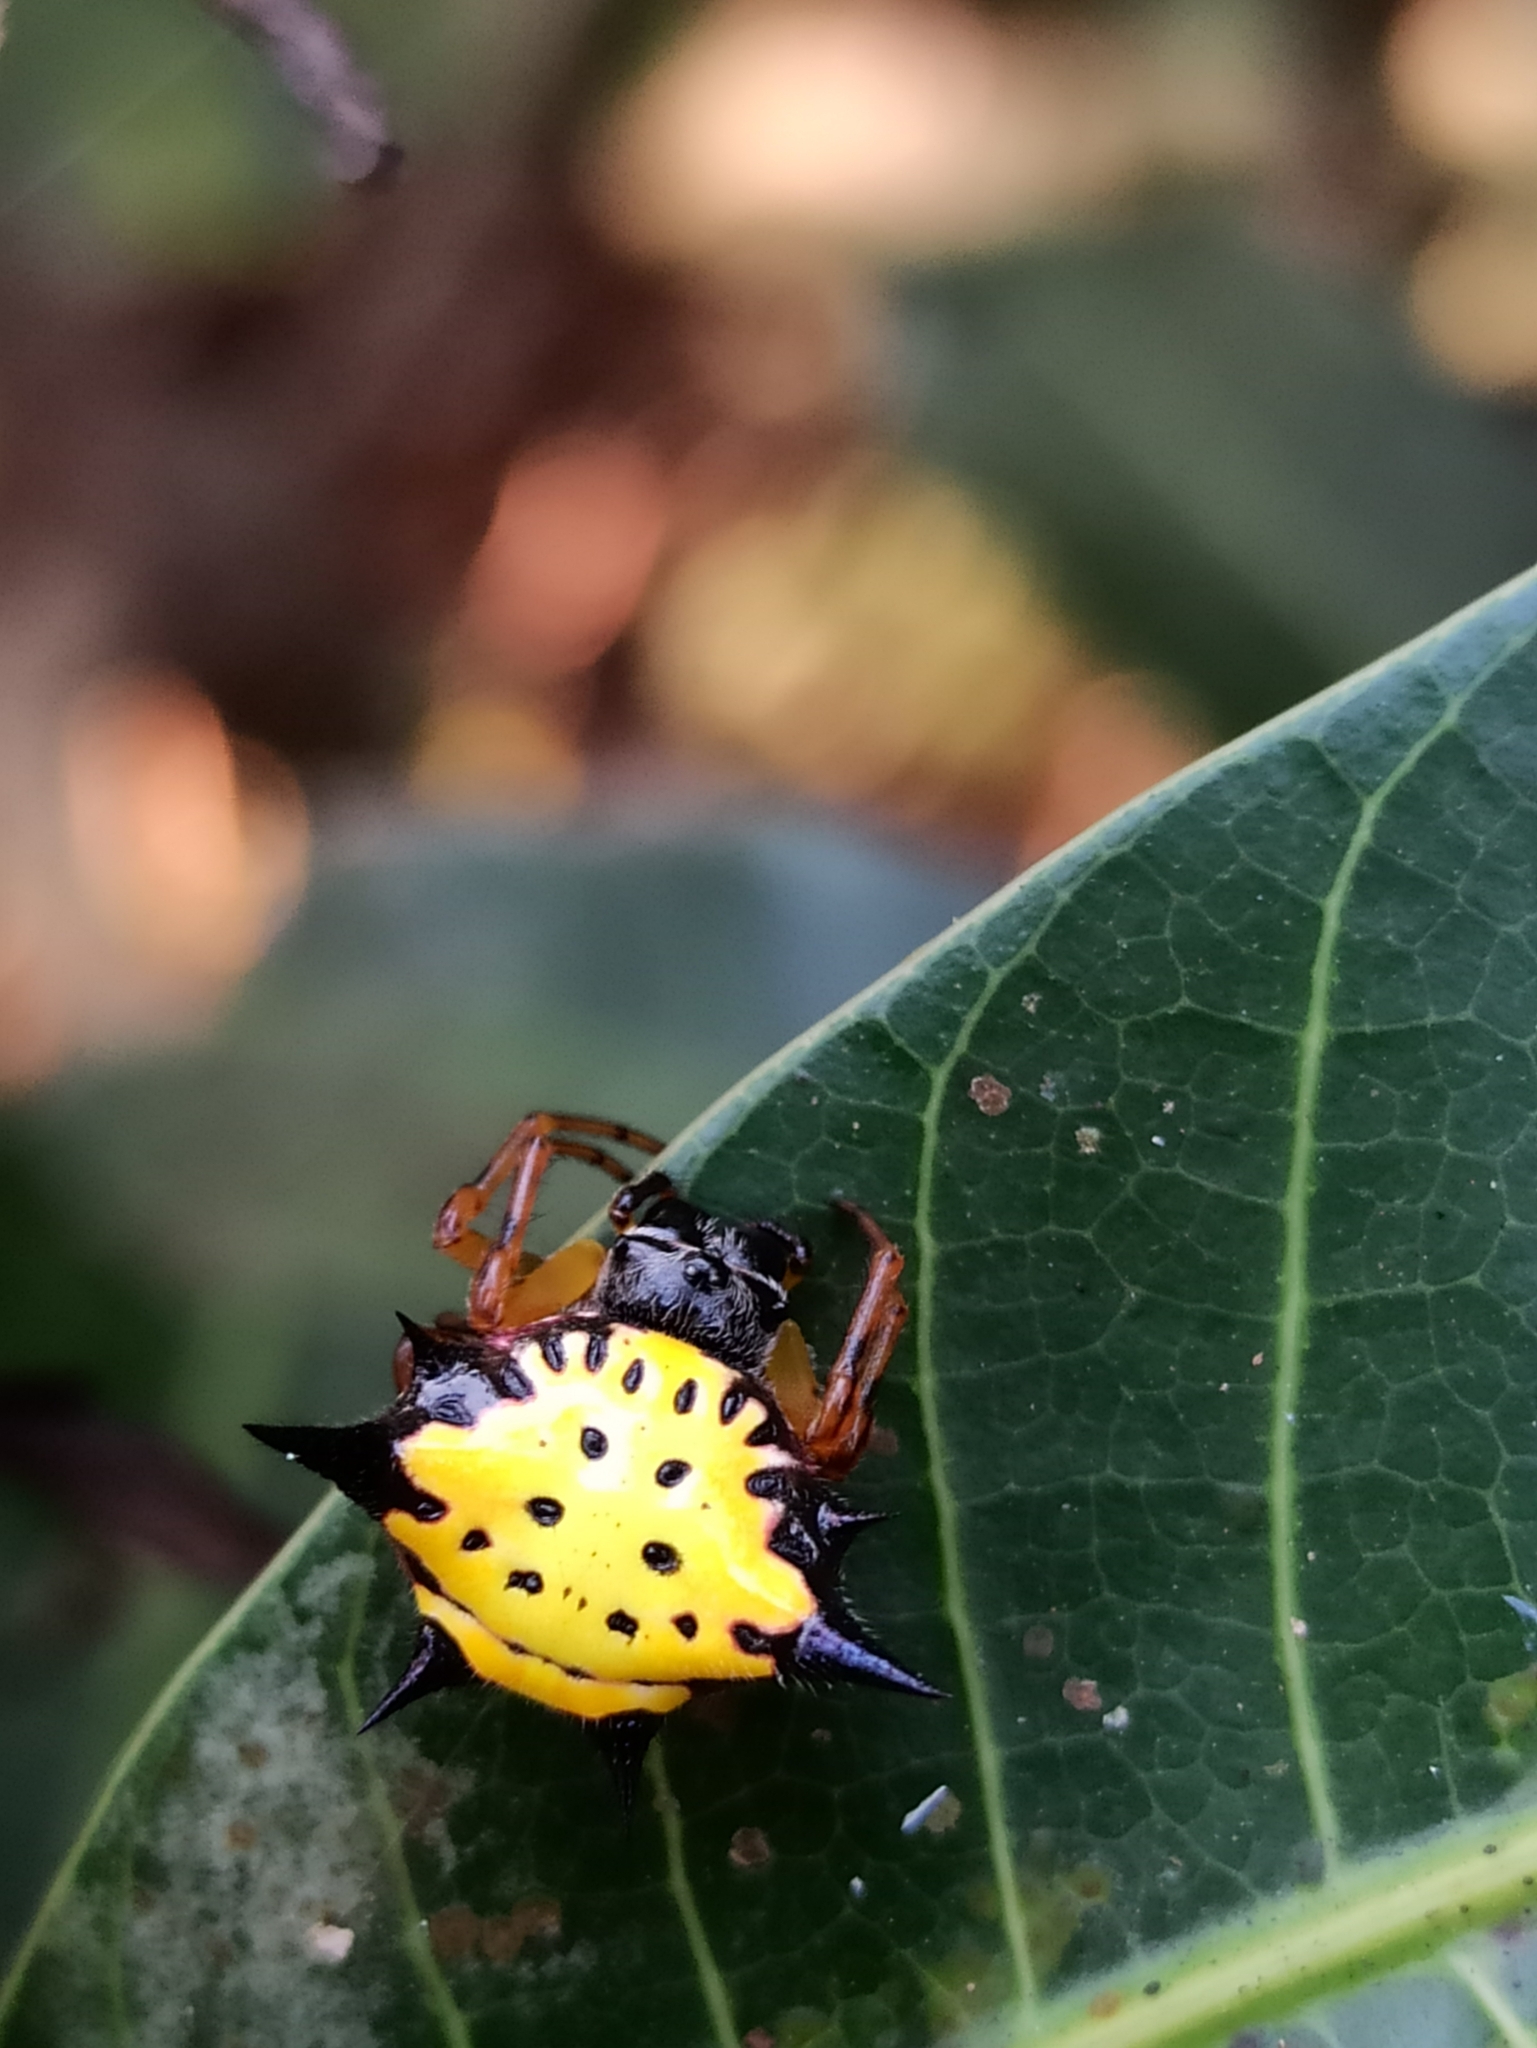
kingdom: Animalia
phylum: Arthropoda
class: Arachnida
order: Araneae
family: Araneidae
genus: Macracantha
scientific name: Macracantha hasselti
